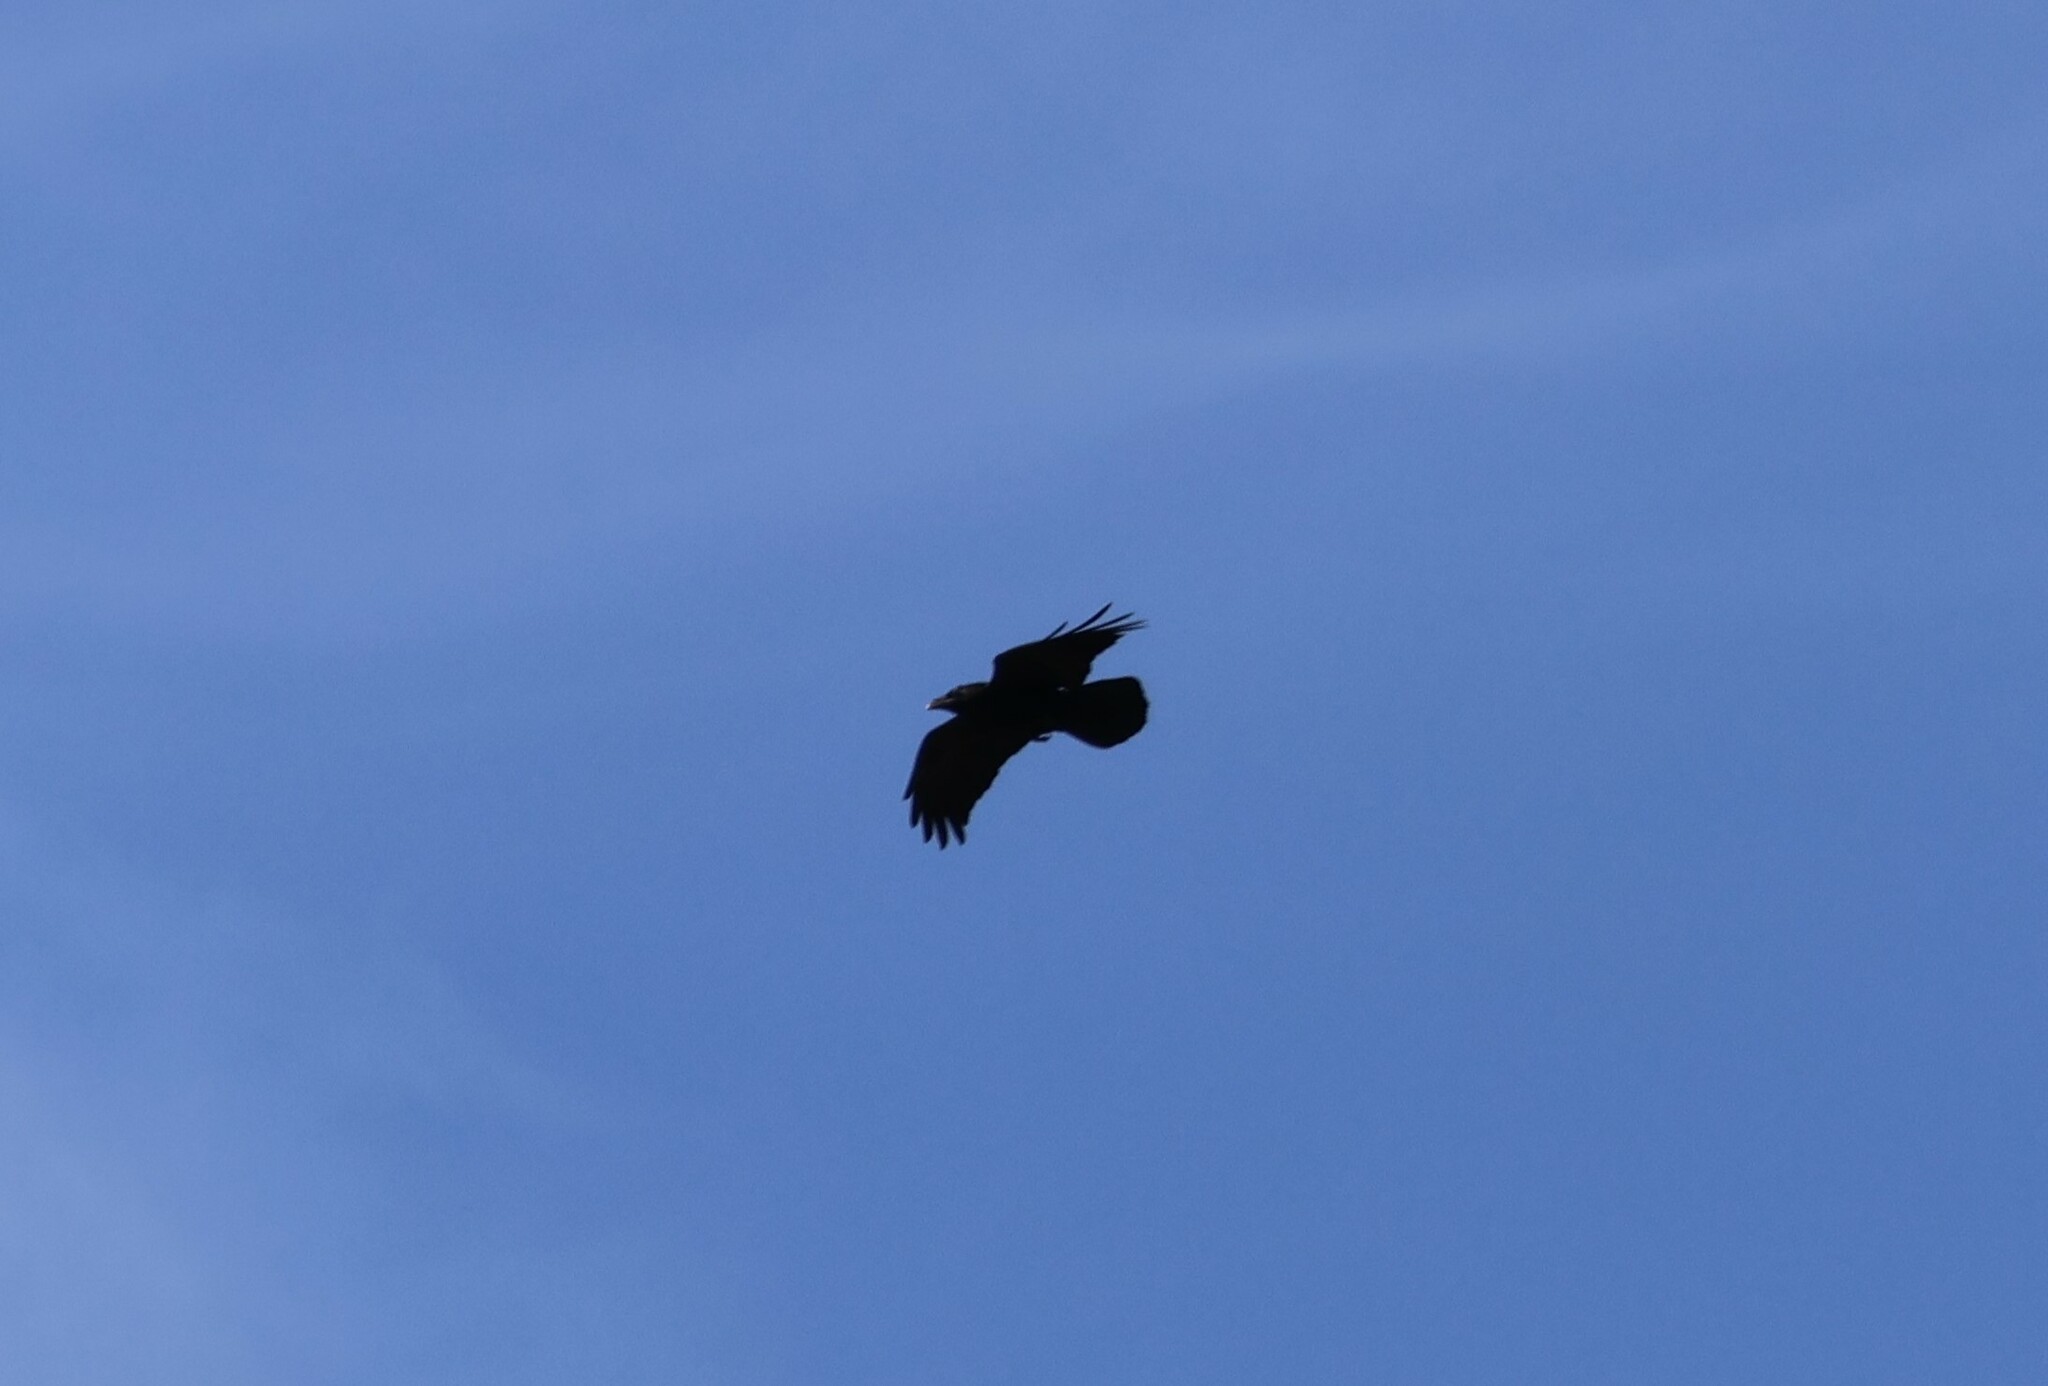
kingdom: Animalia
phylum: Chordata
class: Aves
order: Passeriformes
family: Corvidae
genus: Corvus
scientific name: Corvus corax
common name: Common raven
